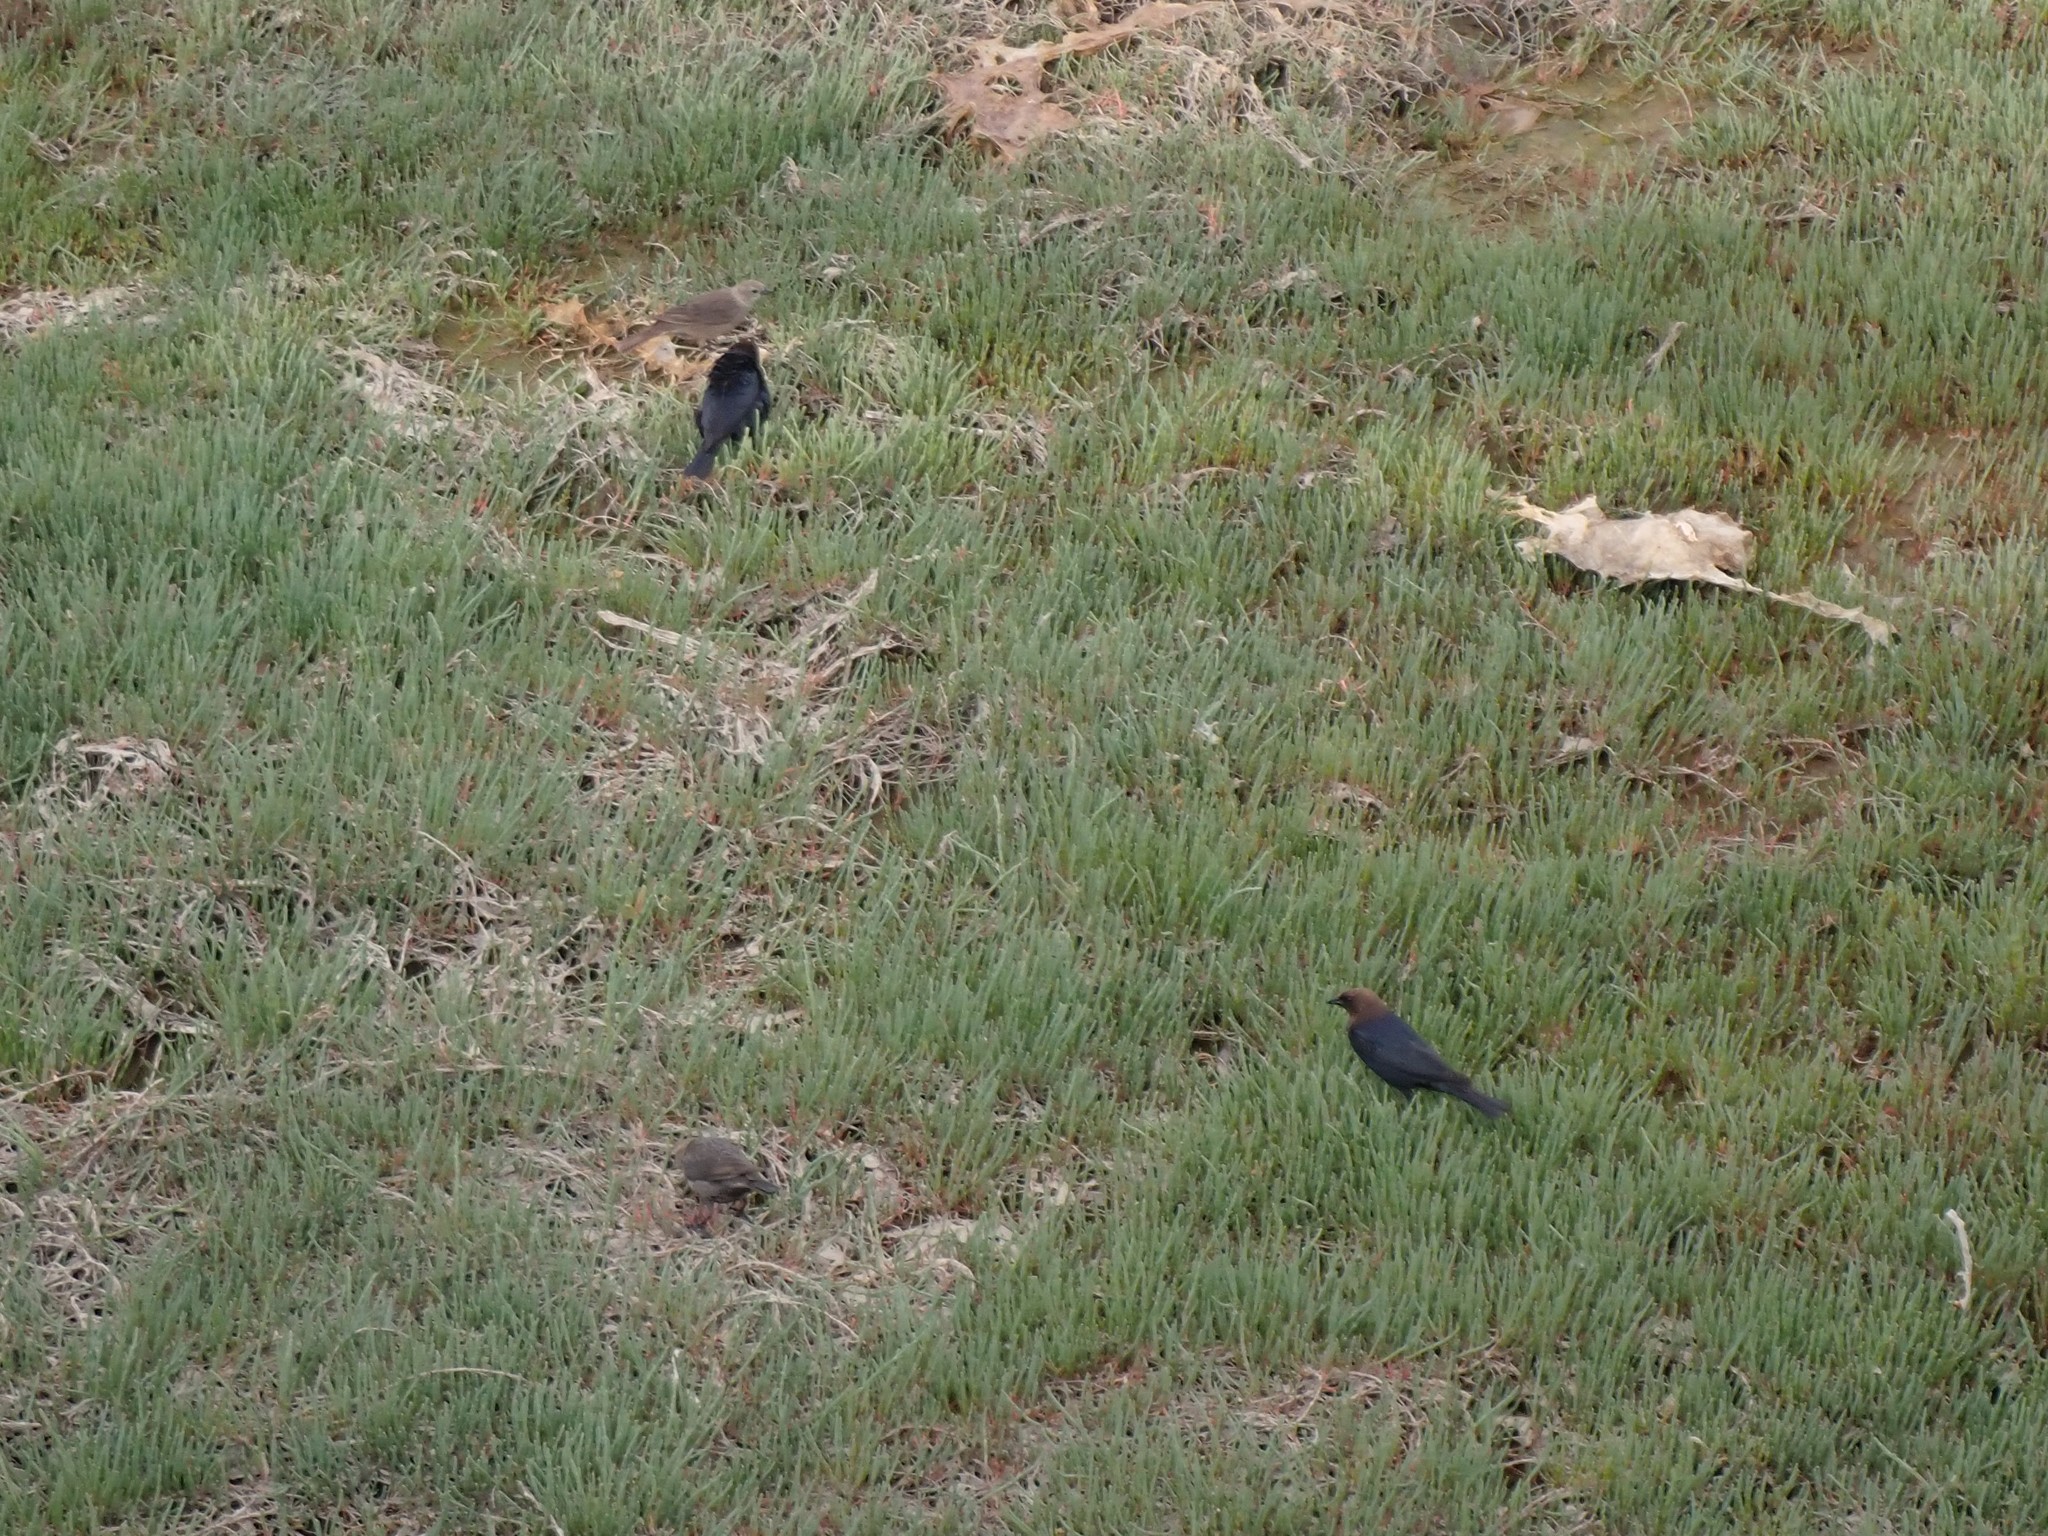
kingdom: Animalia
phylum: Chordata
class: Aves
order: Passeriformes
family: Icteridae
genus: Molothrus
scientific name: Molothrus ater
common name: Brown-headed cowbird
